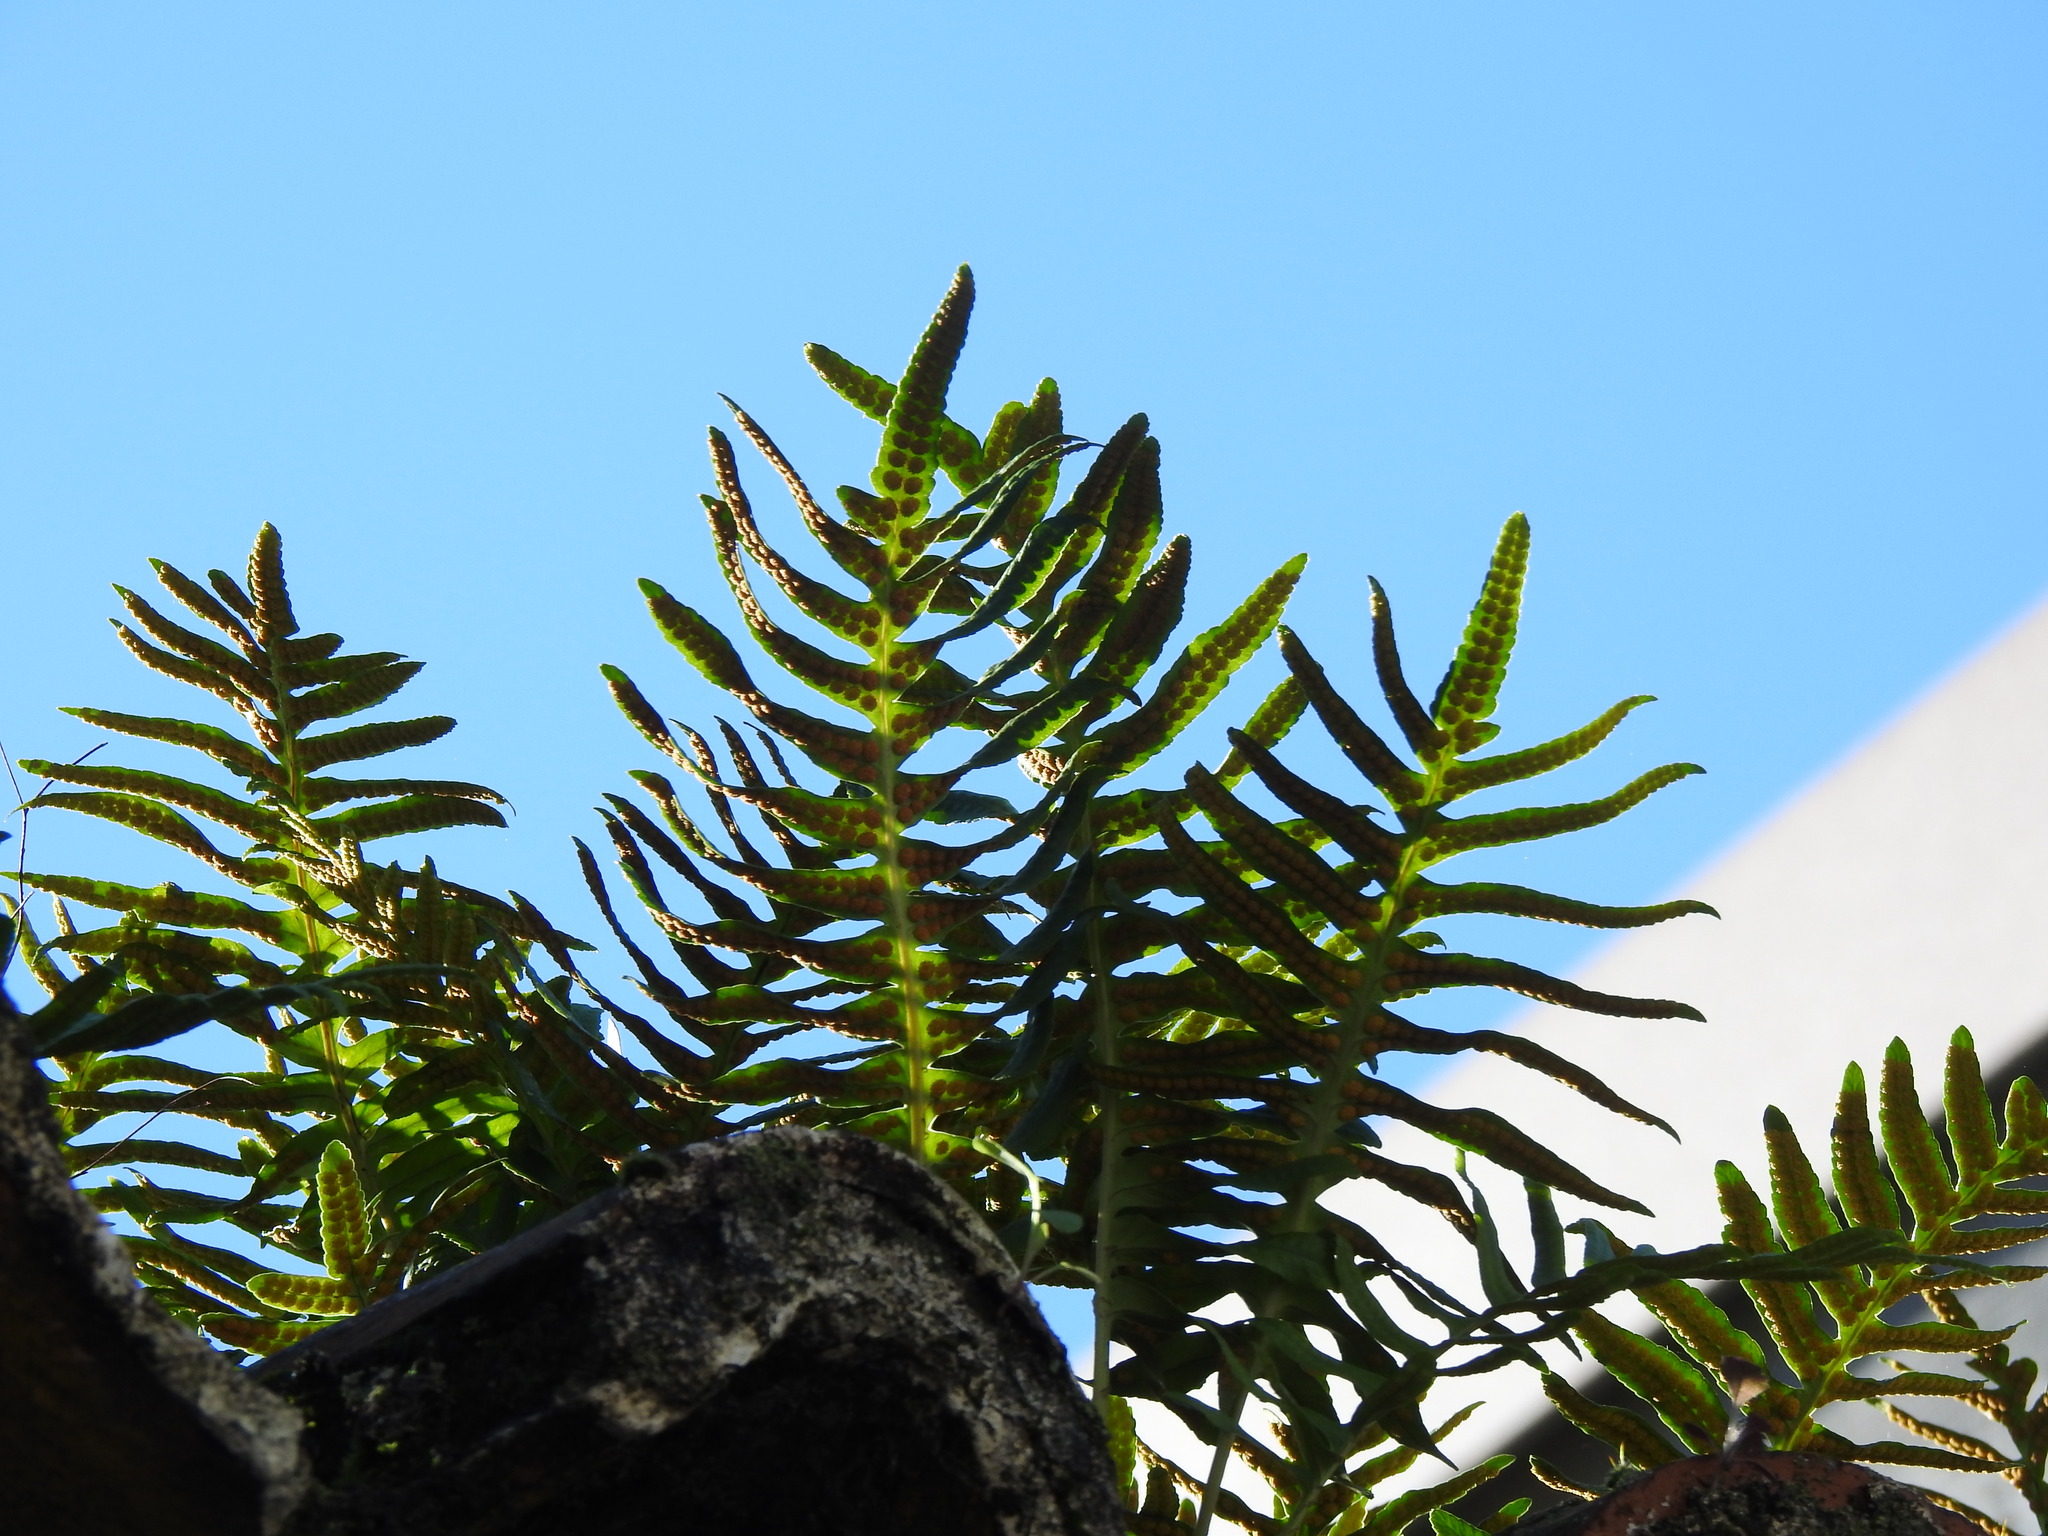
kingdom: Plantae
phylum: Tracheophyta
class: Polypodiopsida
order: Polypodiales
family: Polypodiaceae
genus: Polypodium
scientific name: Polypodium cambricum
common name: Southern polypody
